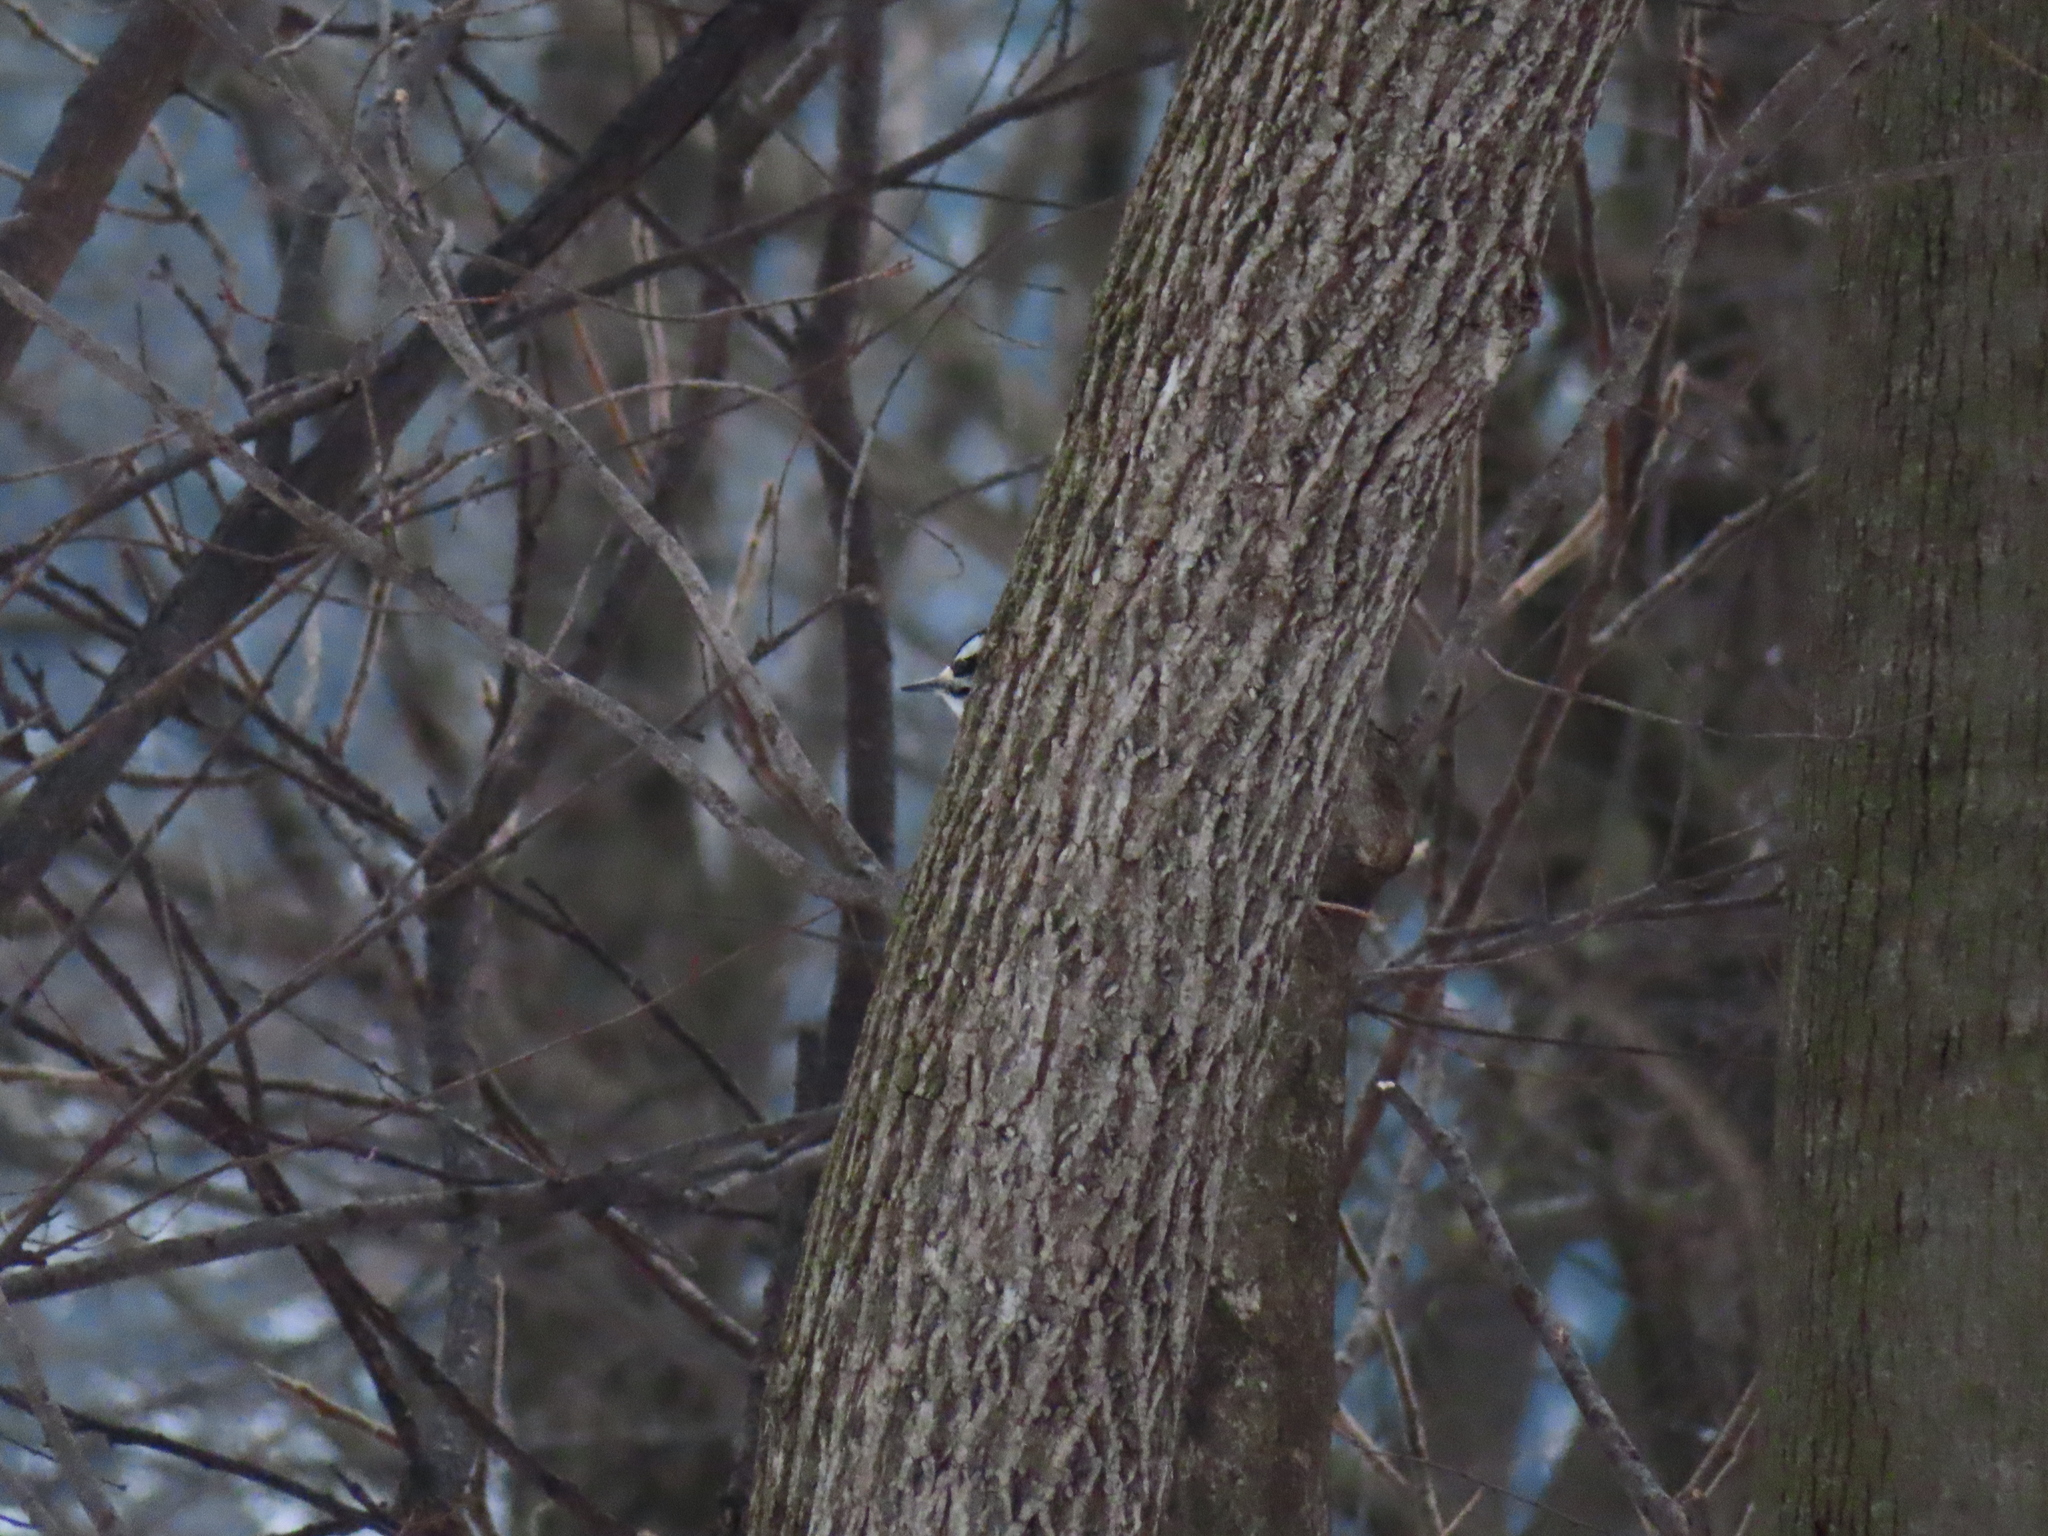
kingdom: Animalia
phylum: Chordata
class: Aves
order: Piciformes
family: Picidae
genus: Dryobates
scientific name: Dryobates pubescens
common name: Downy woodpecker
